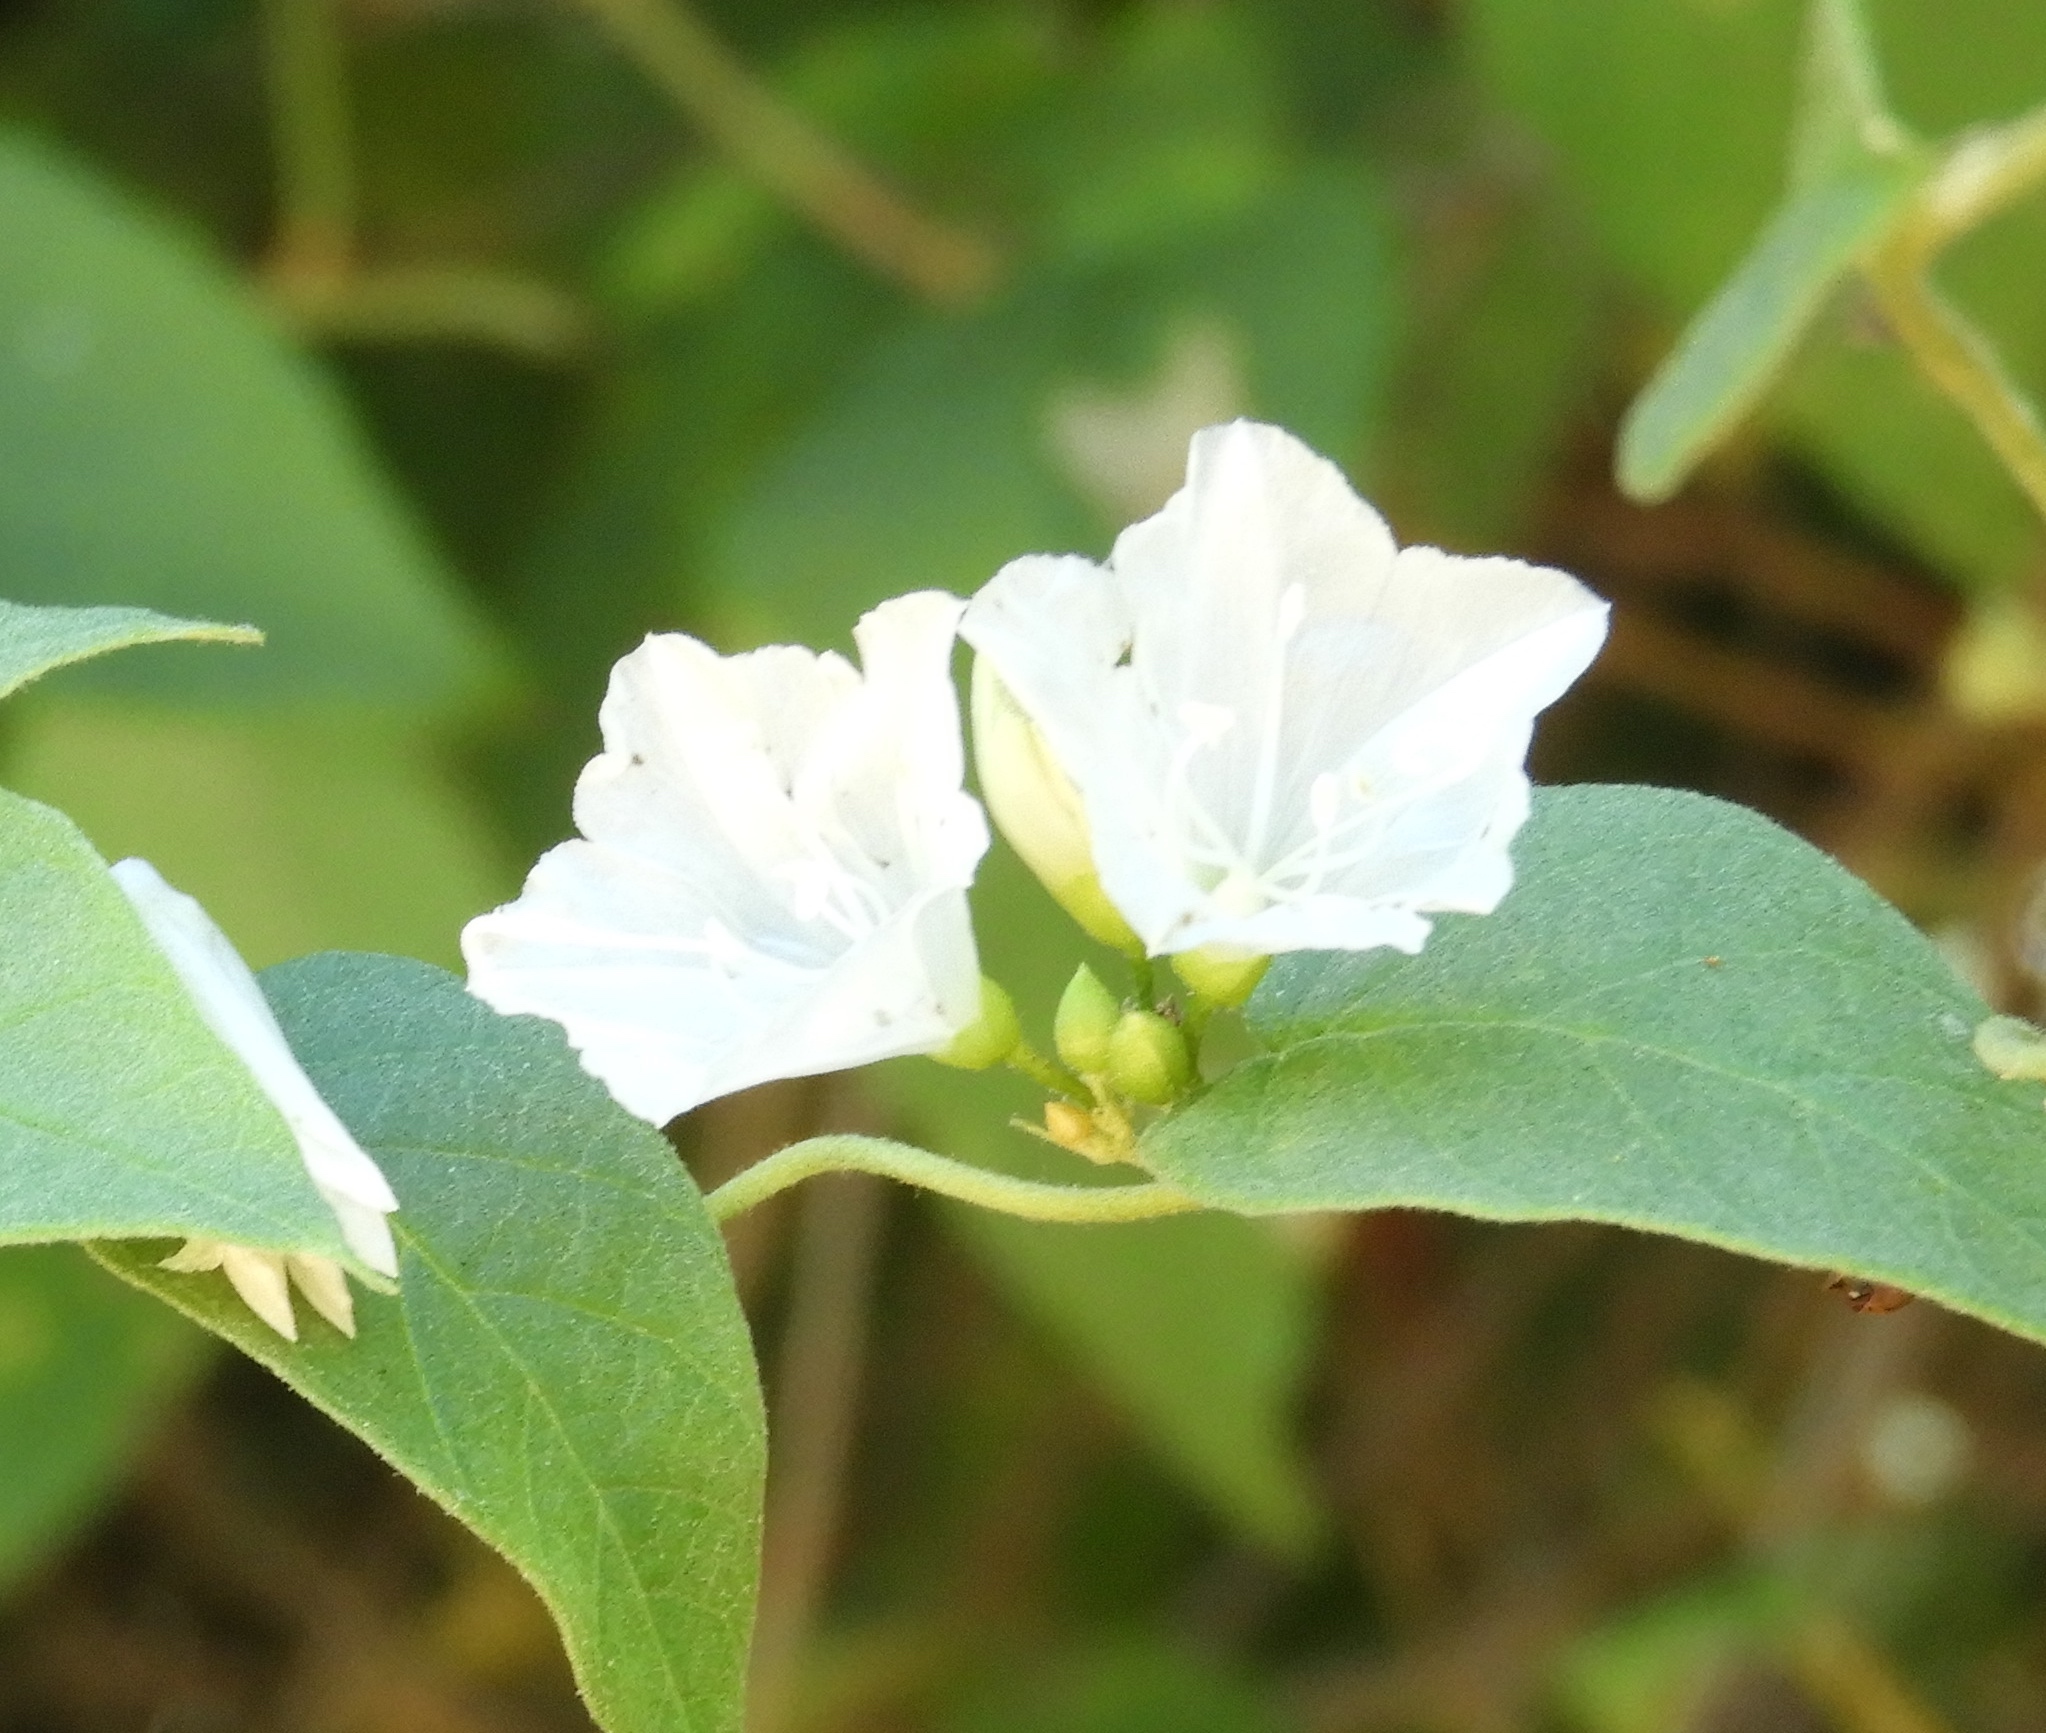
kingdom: Plantae
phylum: Tracheophyta
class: Magnoliopsida
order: Solanales
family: Convolvulaceae
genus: Jacquemontia
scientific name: Jacquemontia nodiflora
